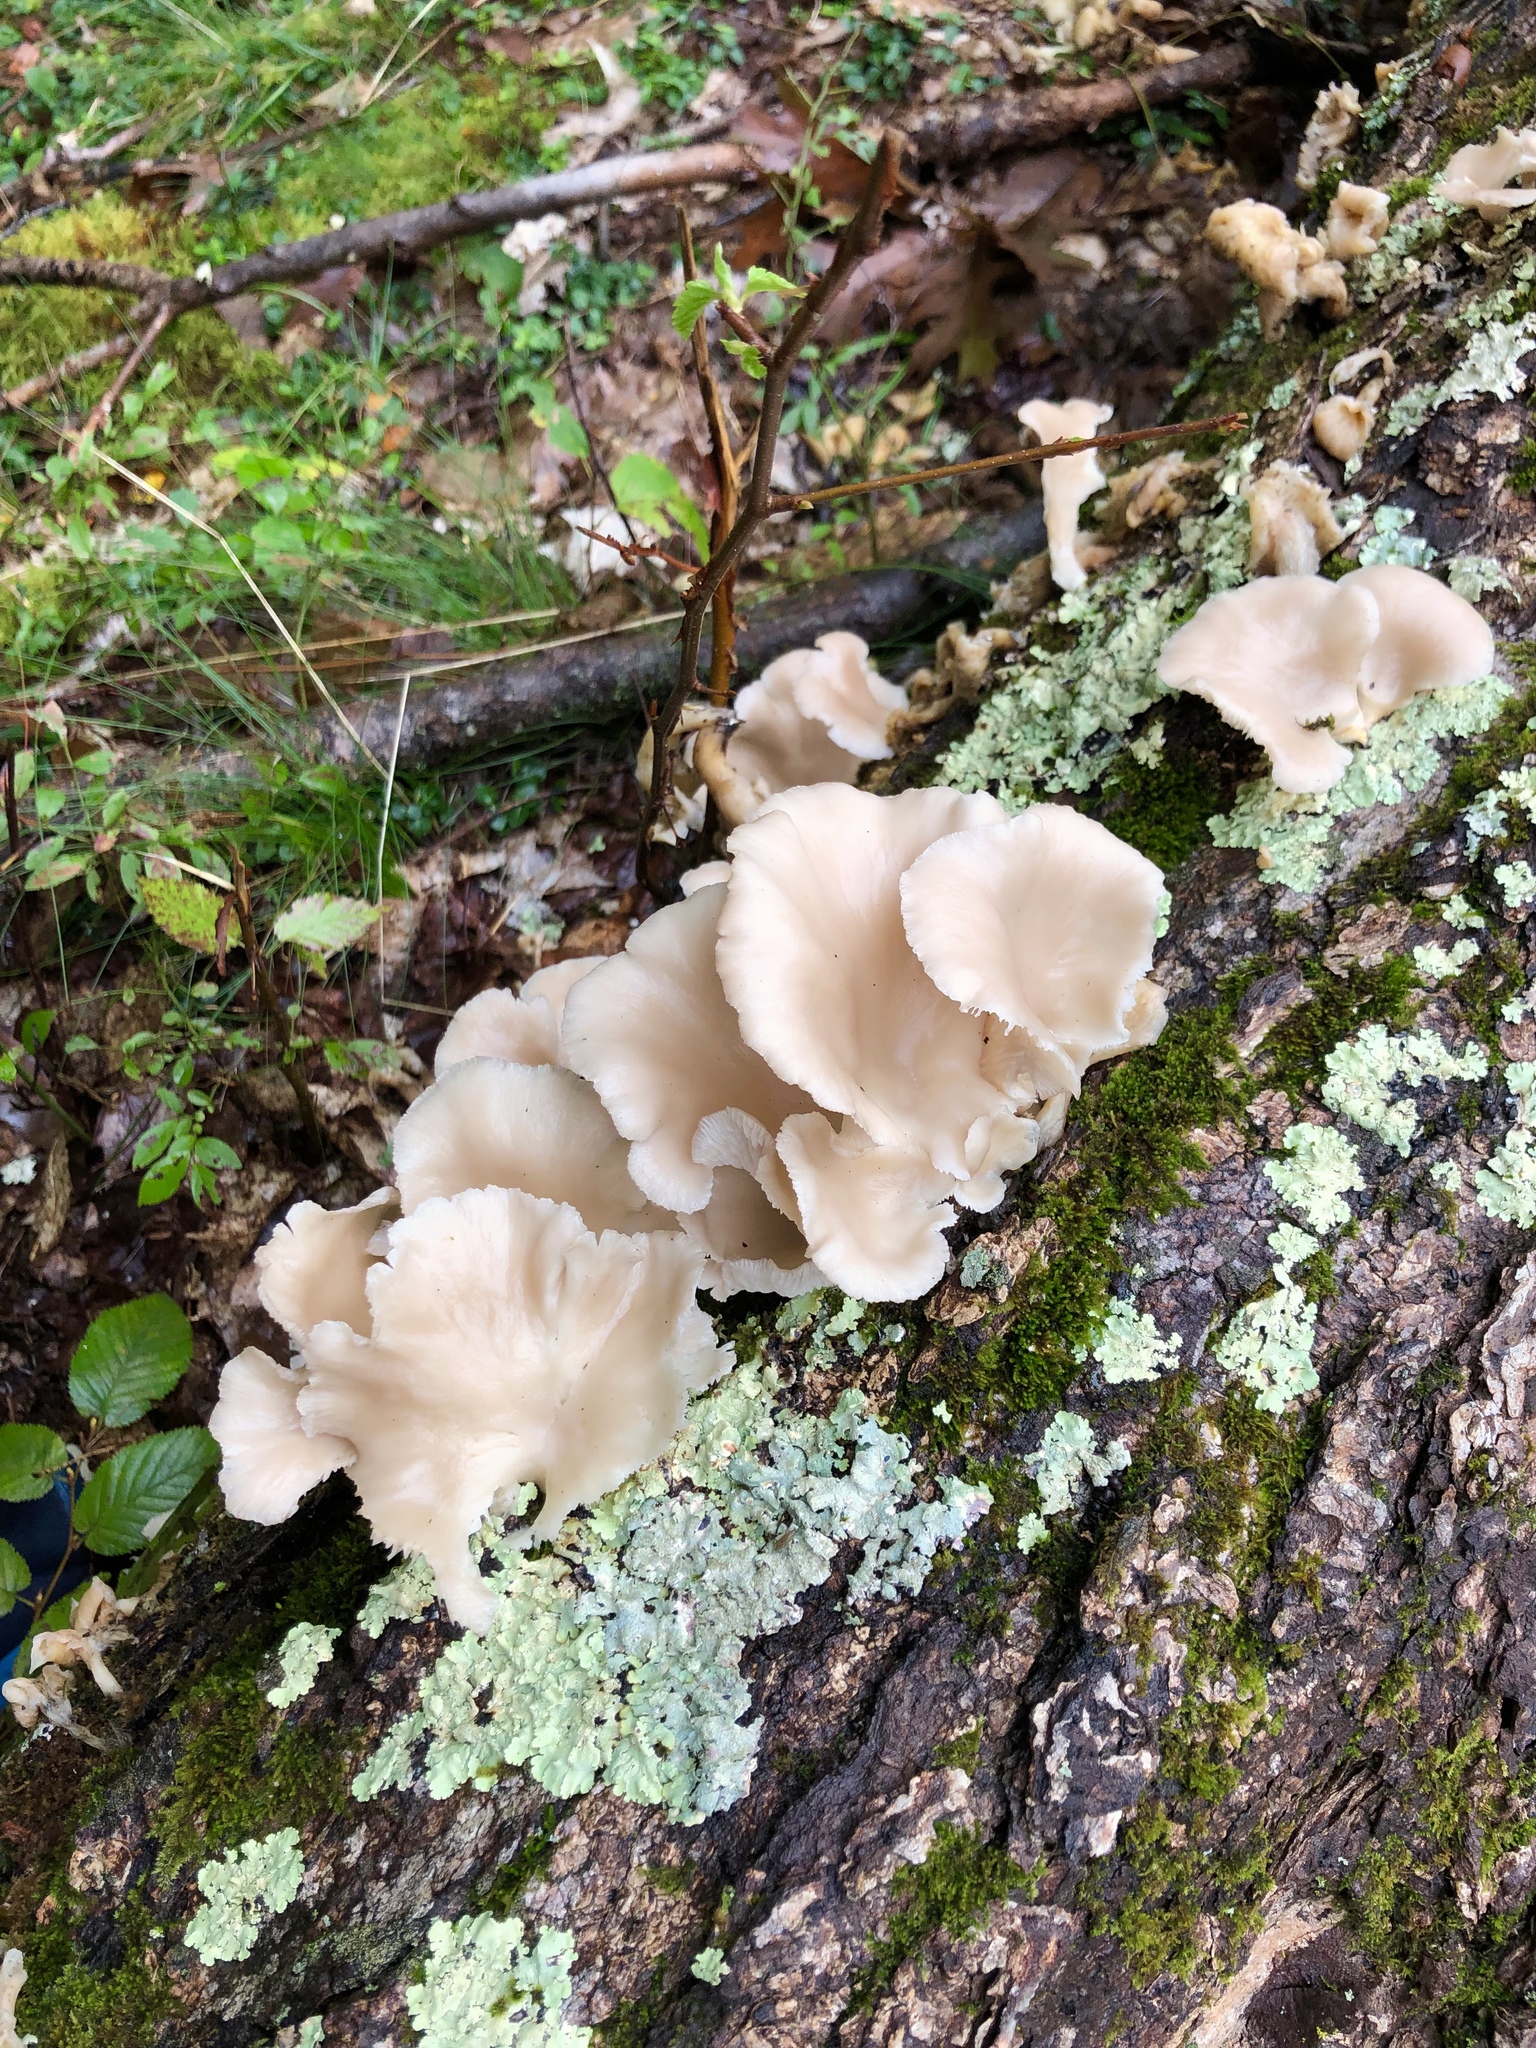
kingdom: Fungi
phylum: Basidiomycota
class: Agaricomycetes
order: Agaricales
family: Pleurotaceae
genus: Pleurotus
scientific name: Pleurotus ostreatus
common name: Oyster mushroom
